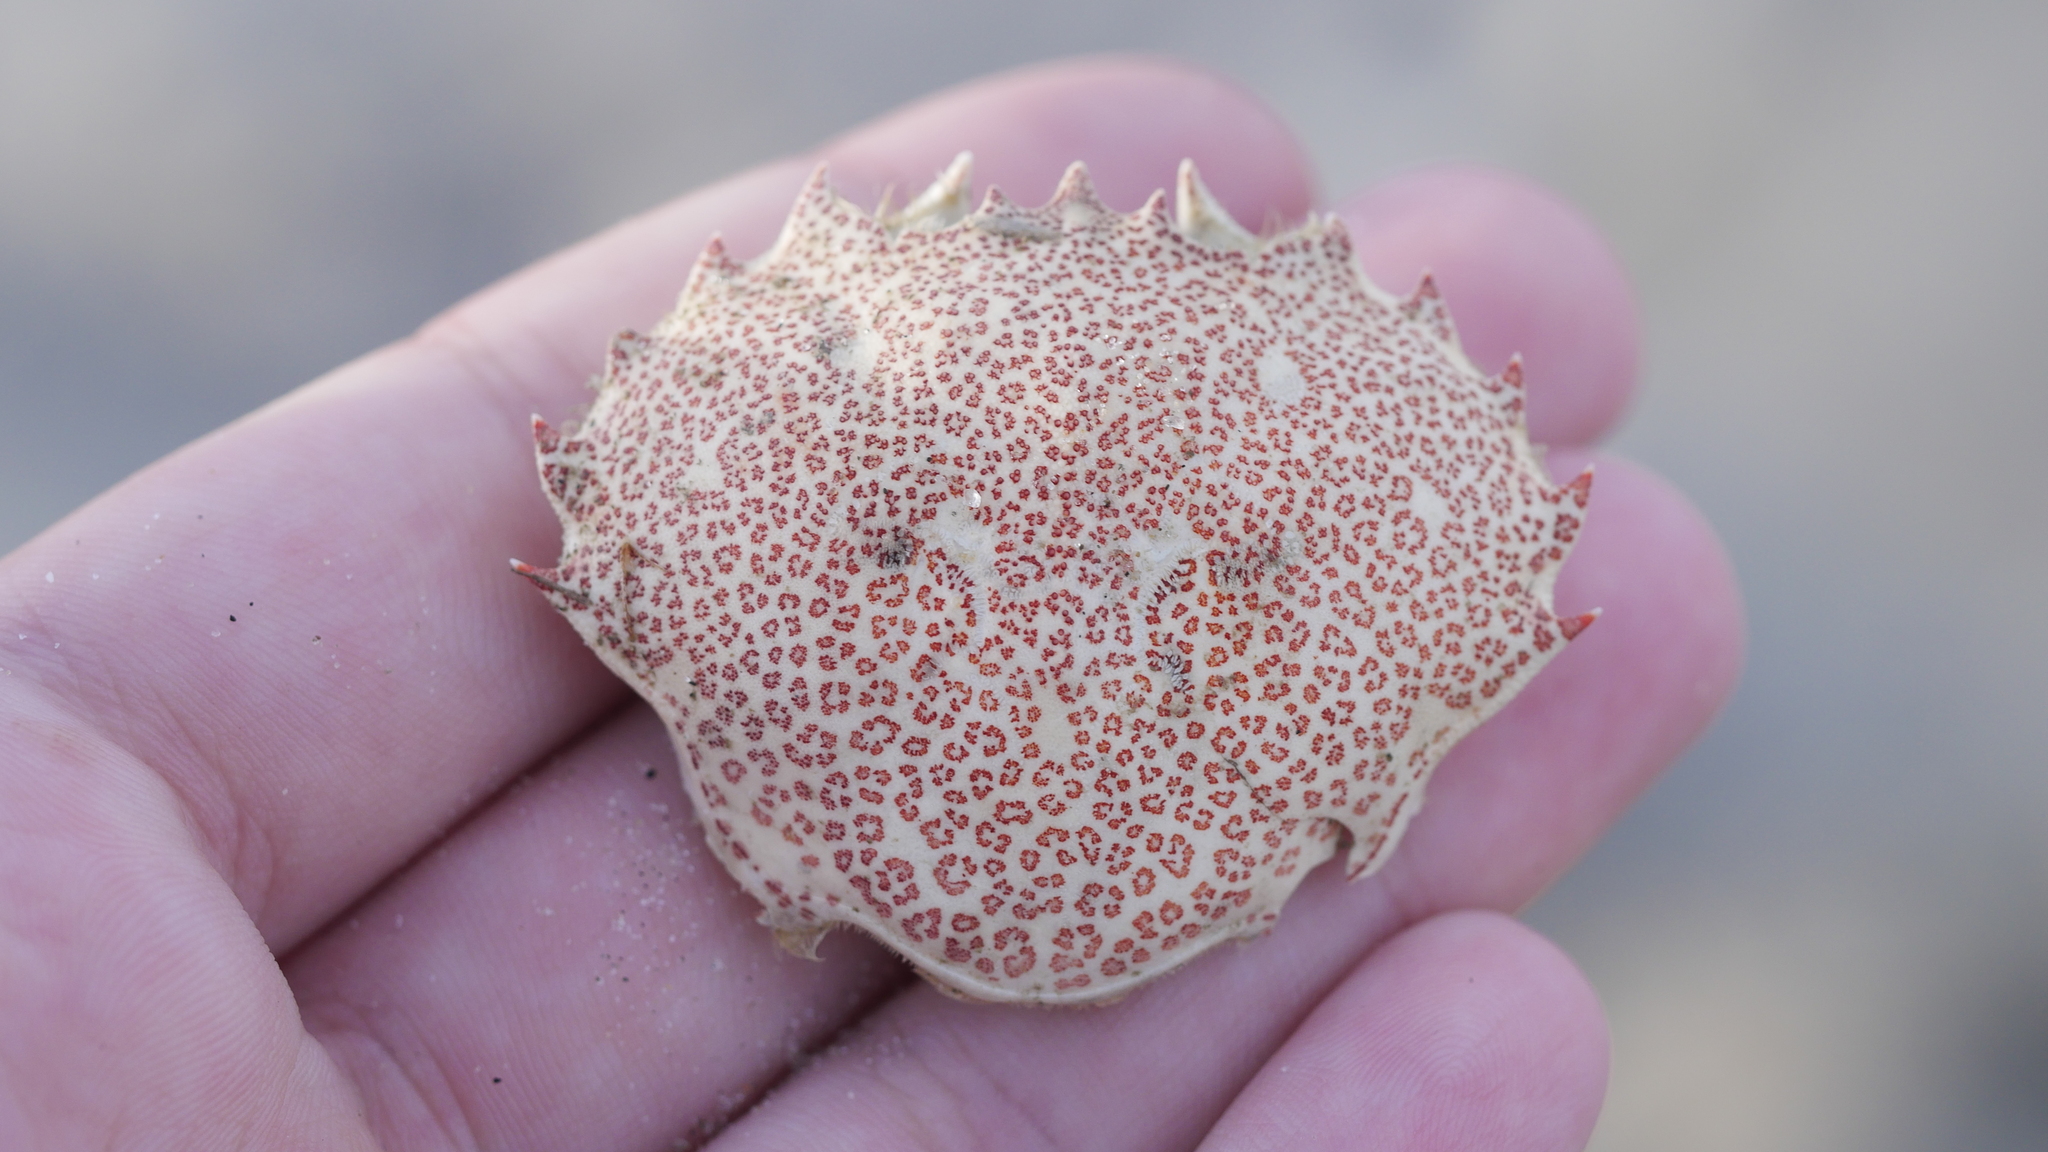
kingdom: Animalia
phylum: Arthropoda
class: Malacostraca
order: Decapoda
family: Ovalipidae
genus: Ovalipes
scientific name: Ovalipes ocellatus
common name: Lady crab
